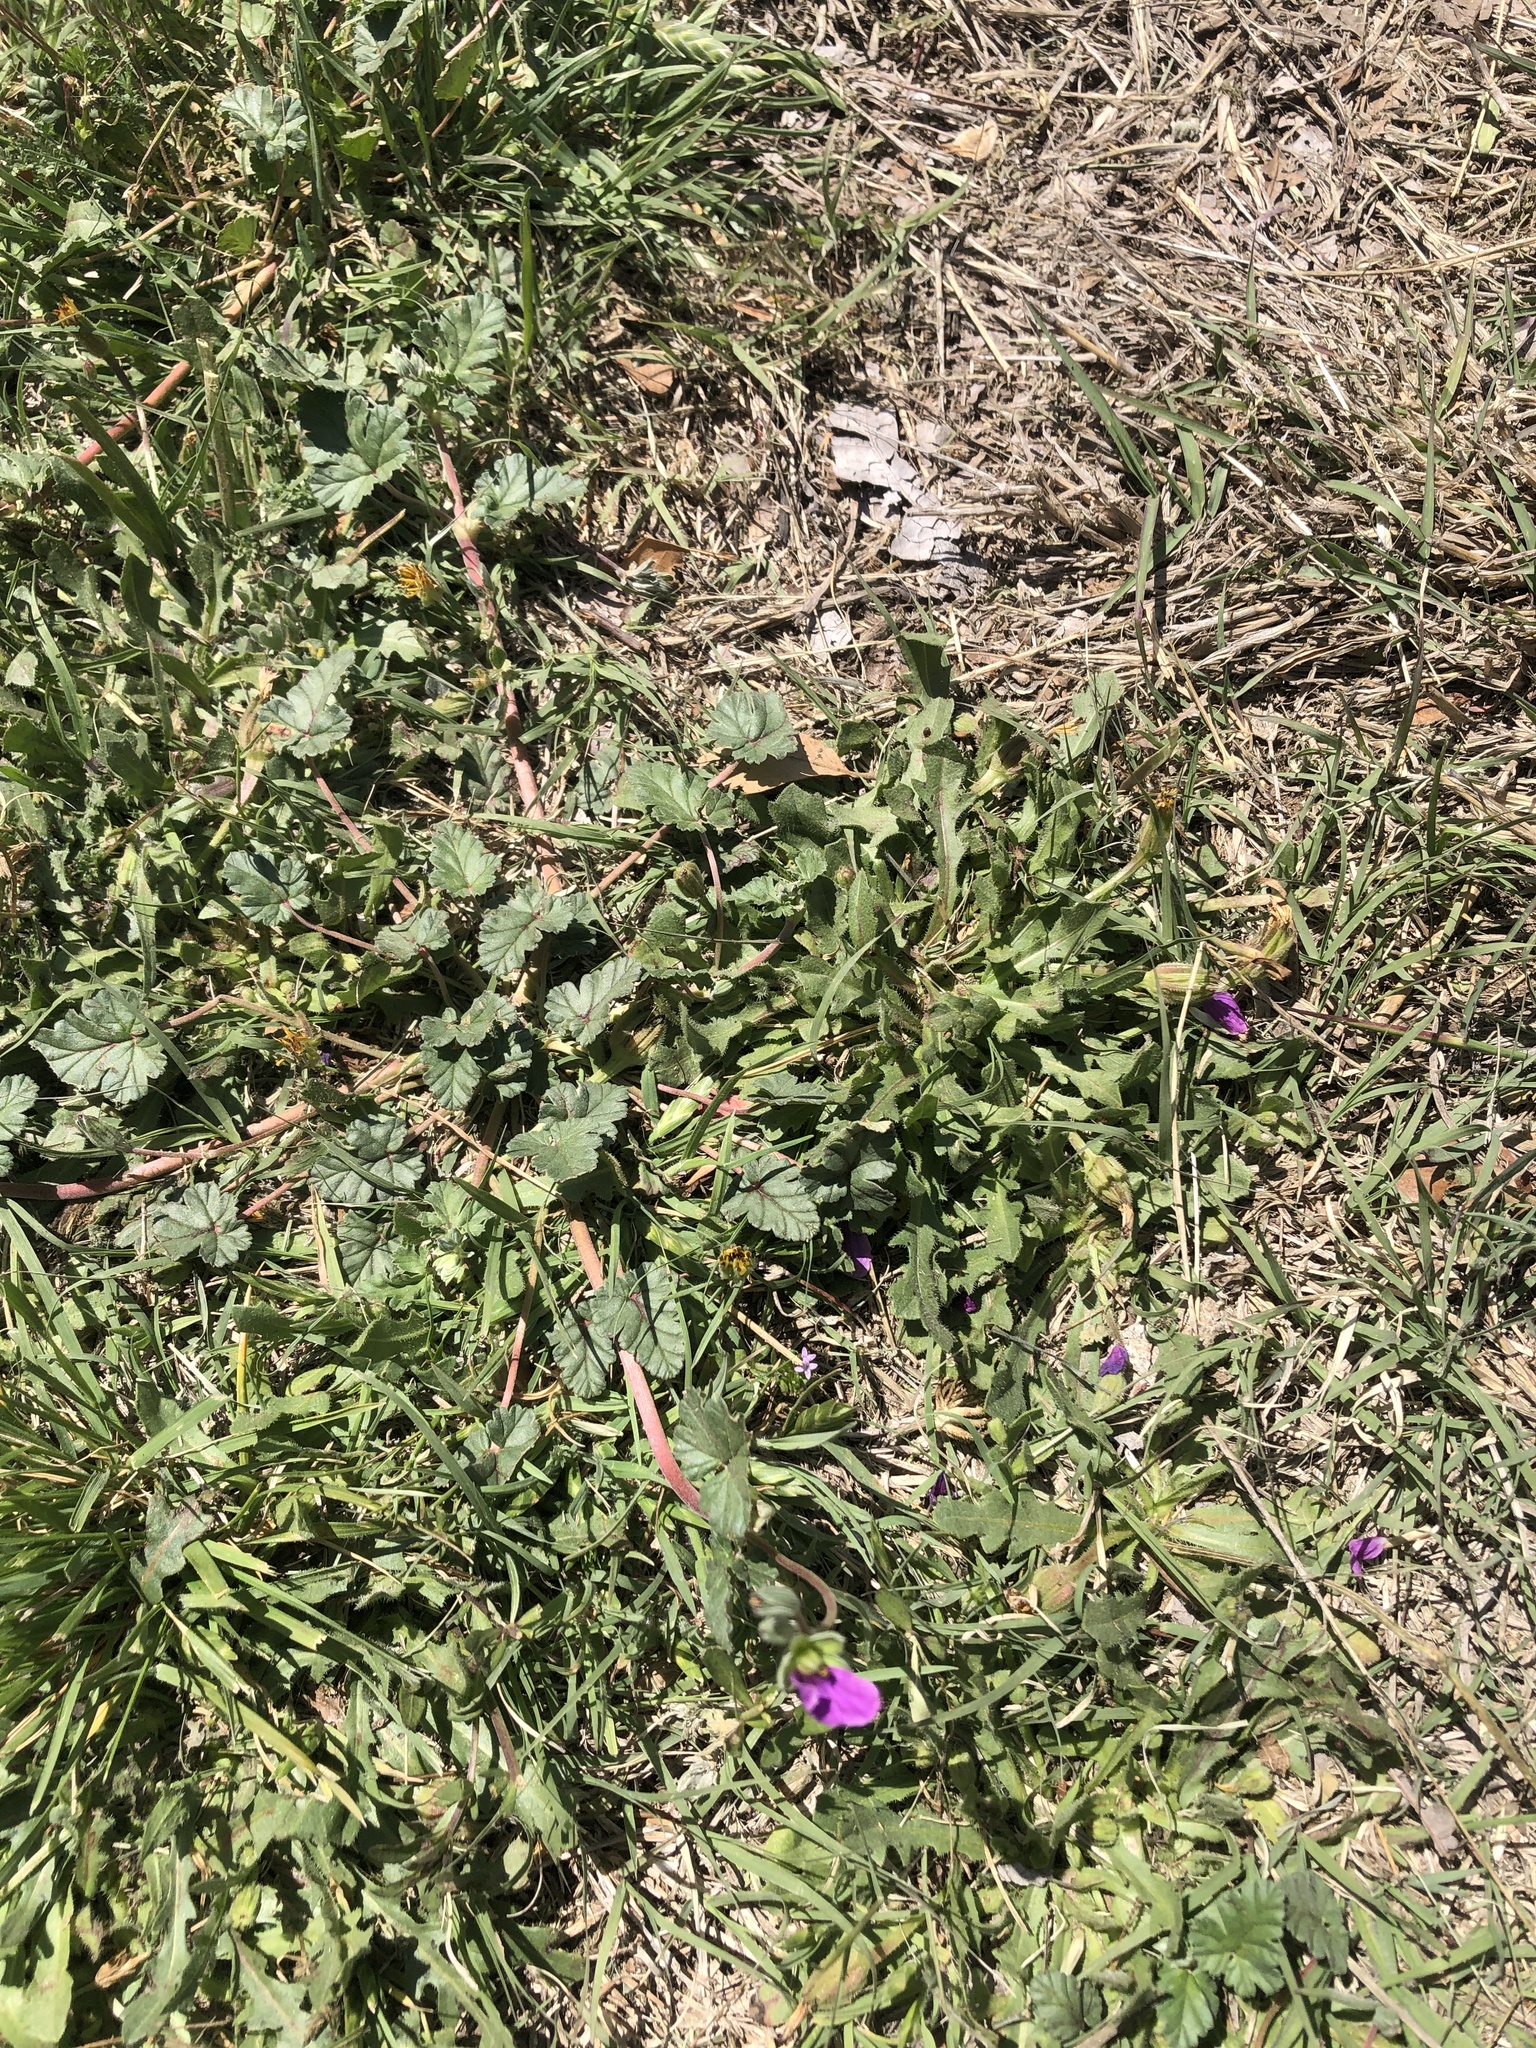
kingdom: Plantae
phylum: Tracheophyta
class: Magnoliopsida
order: Geraniales
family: Geraniaceae
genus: Erodium
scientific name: Erodium texanum
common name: Texas stork's-bill
